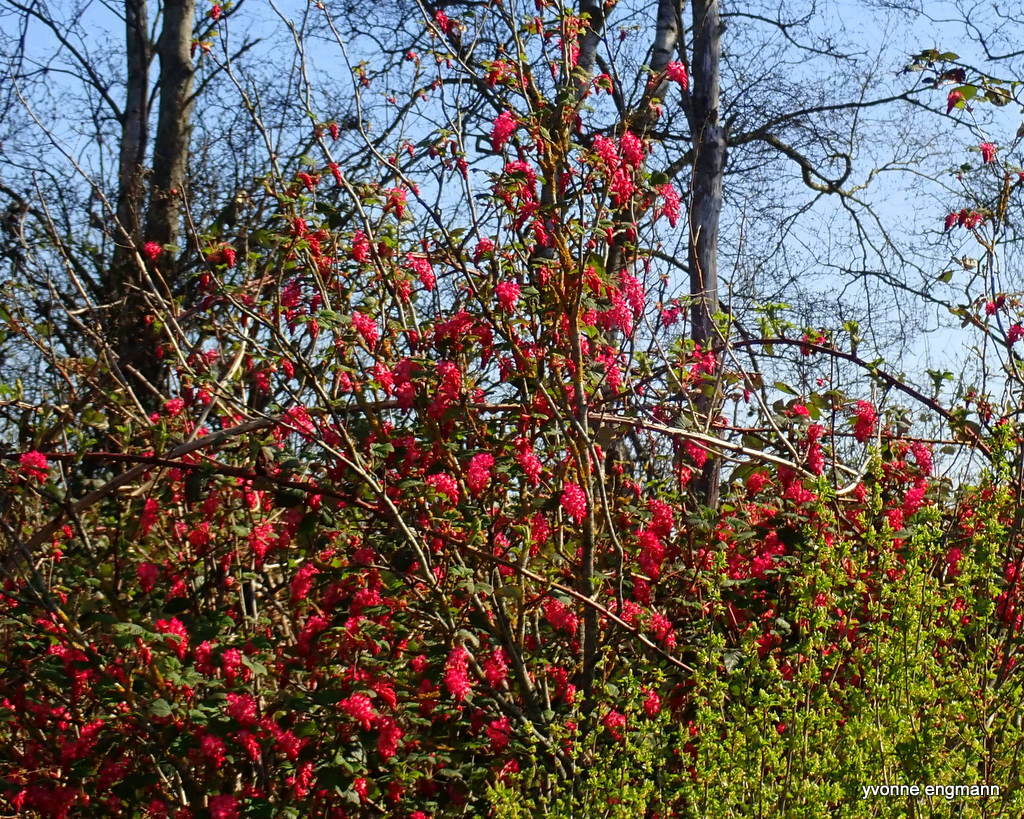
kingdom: Plantae
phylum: Tracheophyta
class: Magnoliopsida
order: Saxifragales
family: Grossulariaceae
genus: Ribes
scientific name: Ribes sanguineum
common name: Flowering currant
